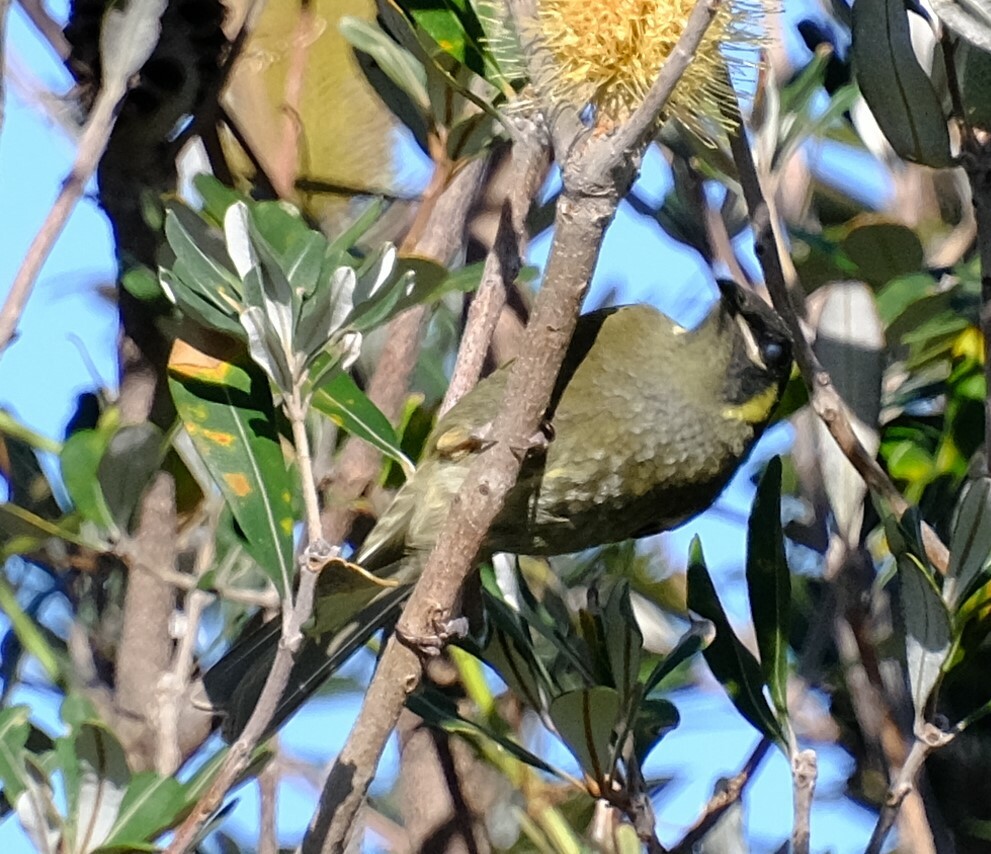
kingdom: Animalia
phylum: Chordata
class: Aves
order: Passeriformes
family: Meliphagidae
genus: Meliphaga
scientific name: Meliphaga lewinii
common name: Lewin's honeyeater
